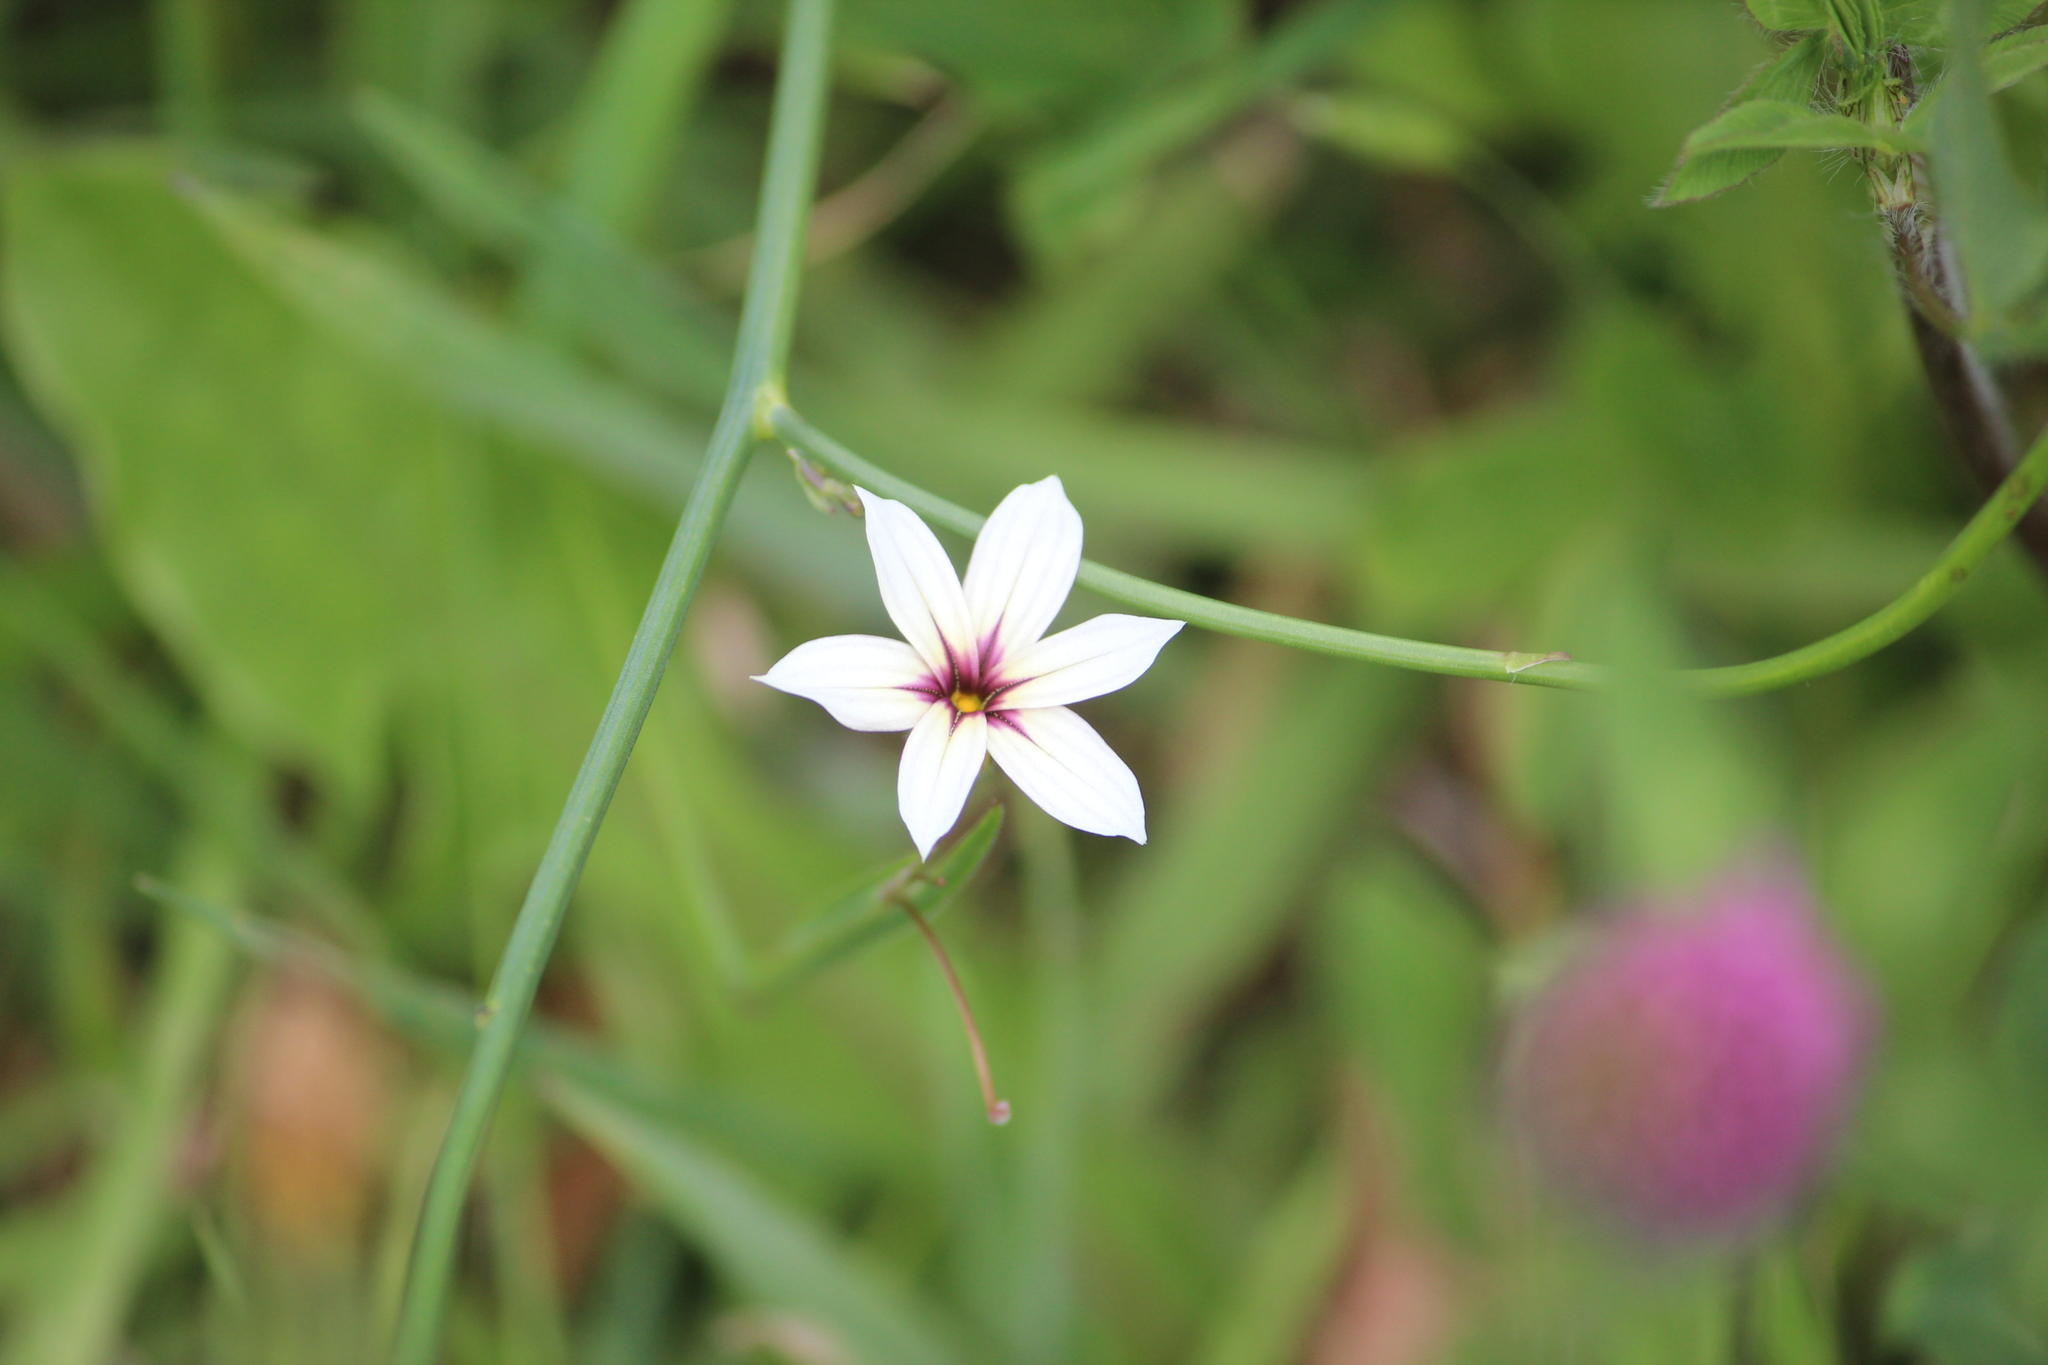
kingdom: Plantae
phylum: Tracheophyta
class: Liliopsida
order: Asparagales
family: Iridaceae
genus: Sisyrinchium
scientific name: Sisyrinchium micranthum
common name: Bermuda pigroot
